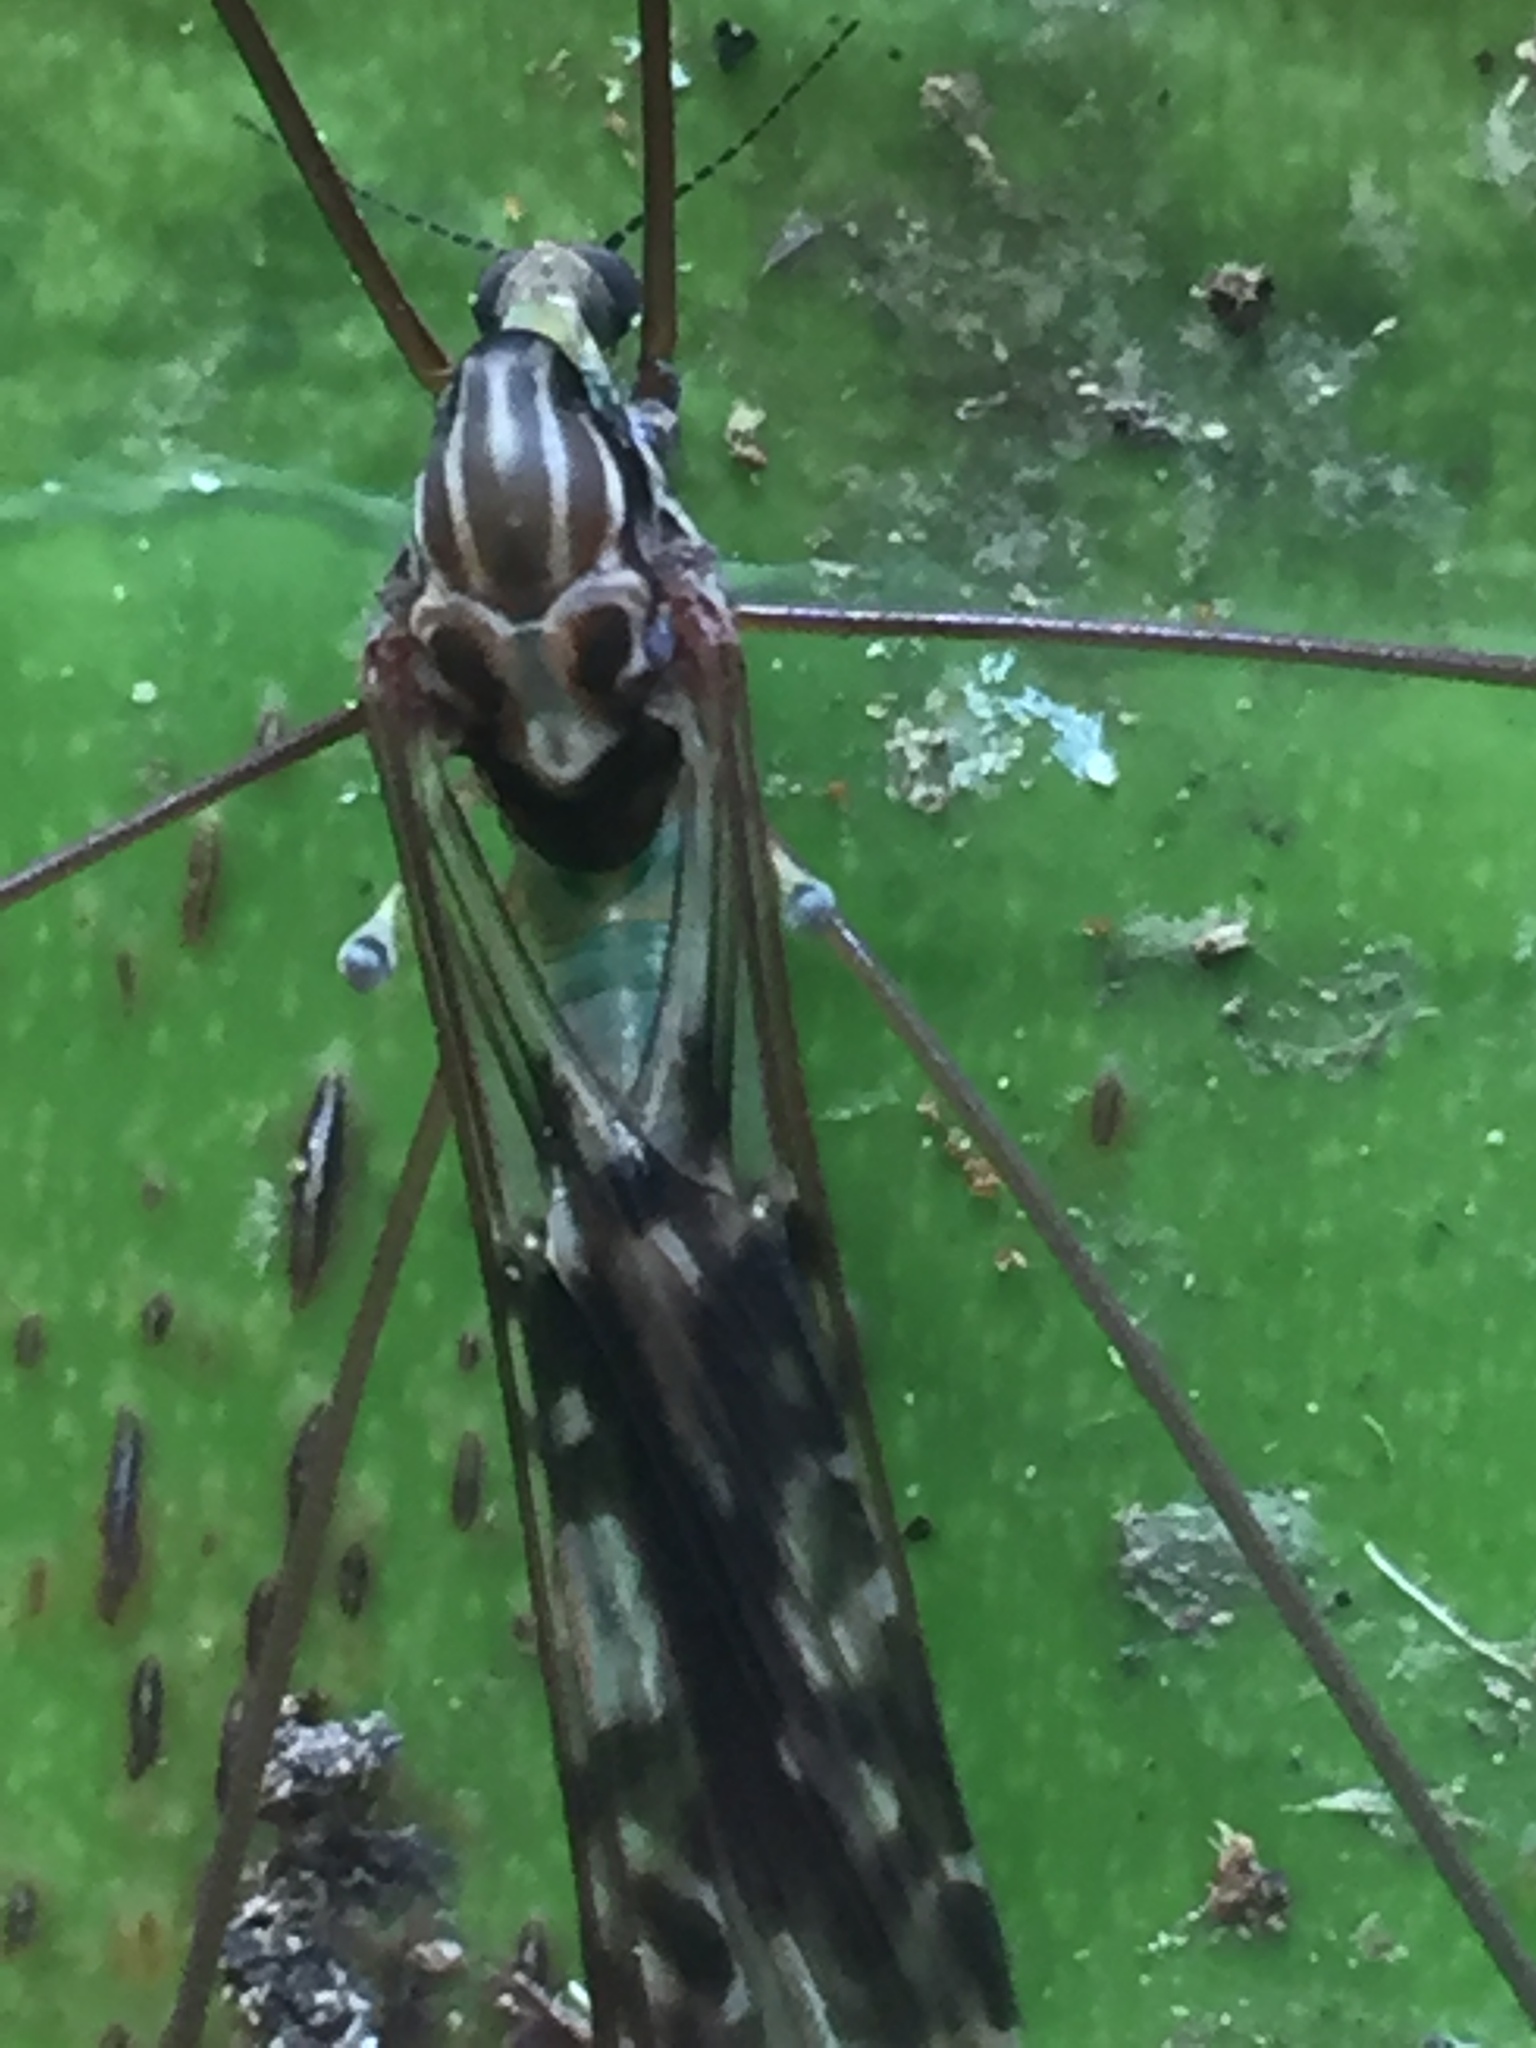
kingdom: Animalia
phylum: Arthropoda
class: Insecta
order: Diptera
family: Limoniidae
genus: Discobola
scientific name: Discobola dohrni
